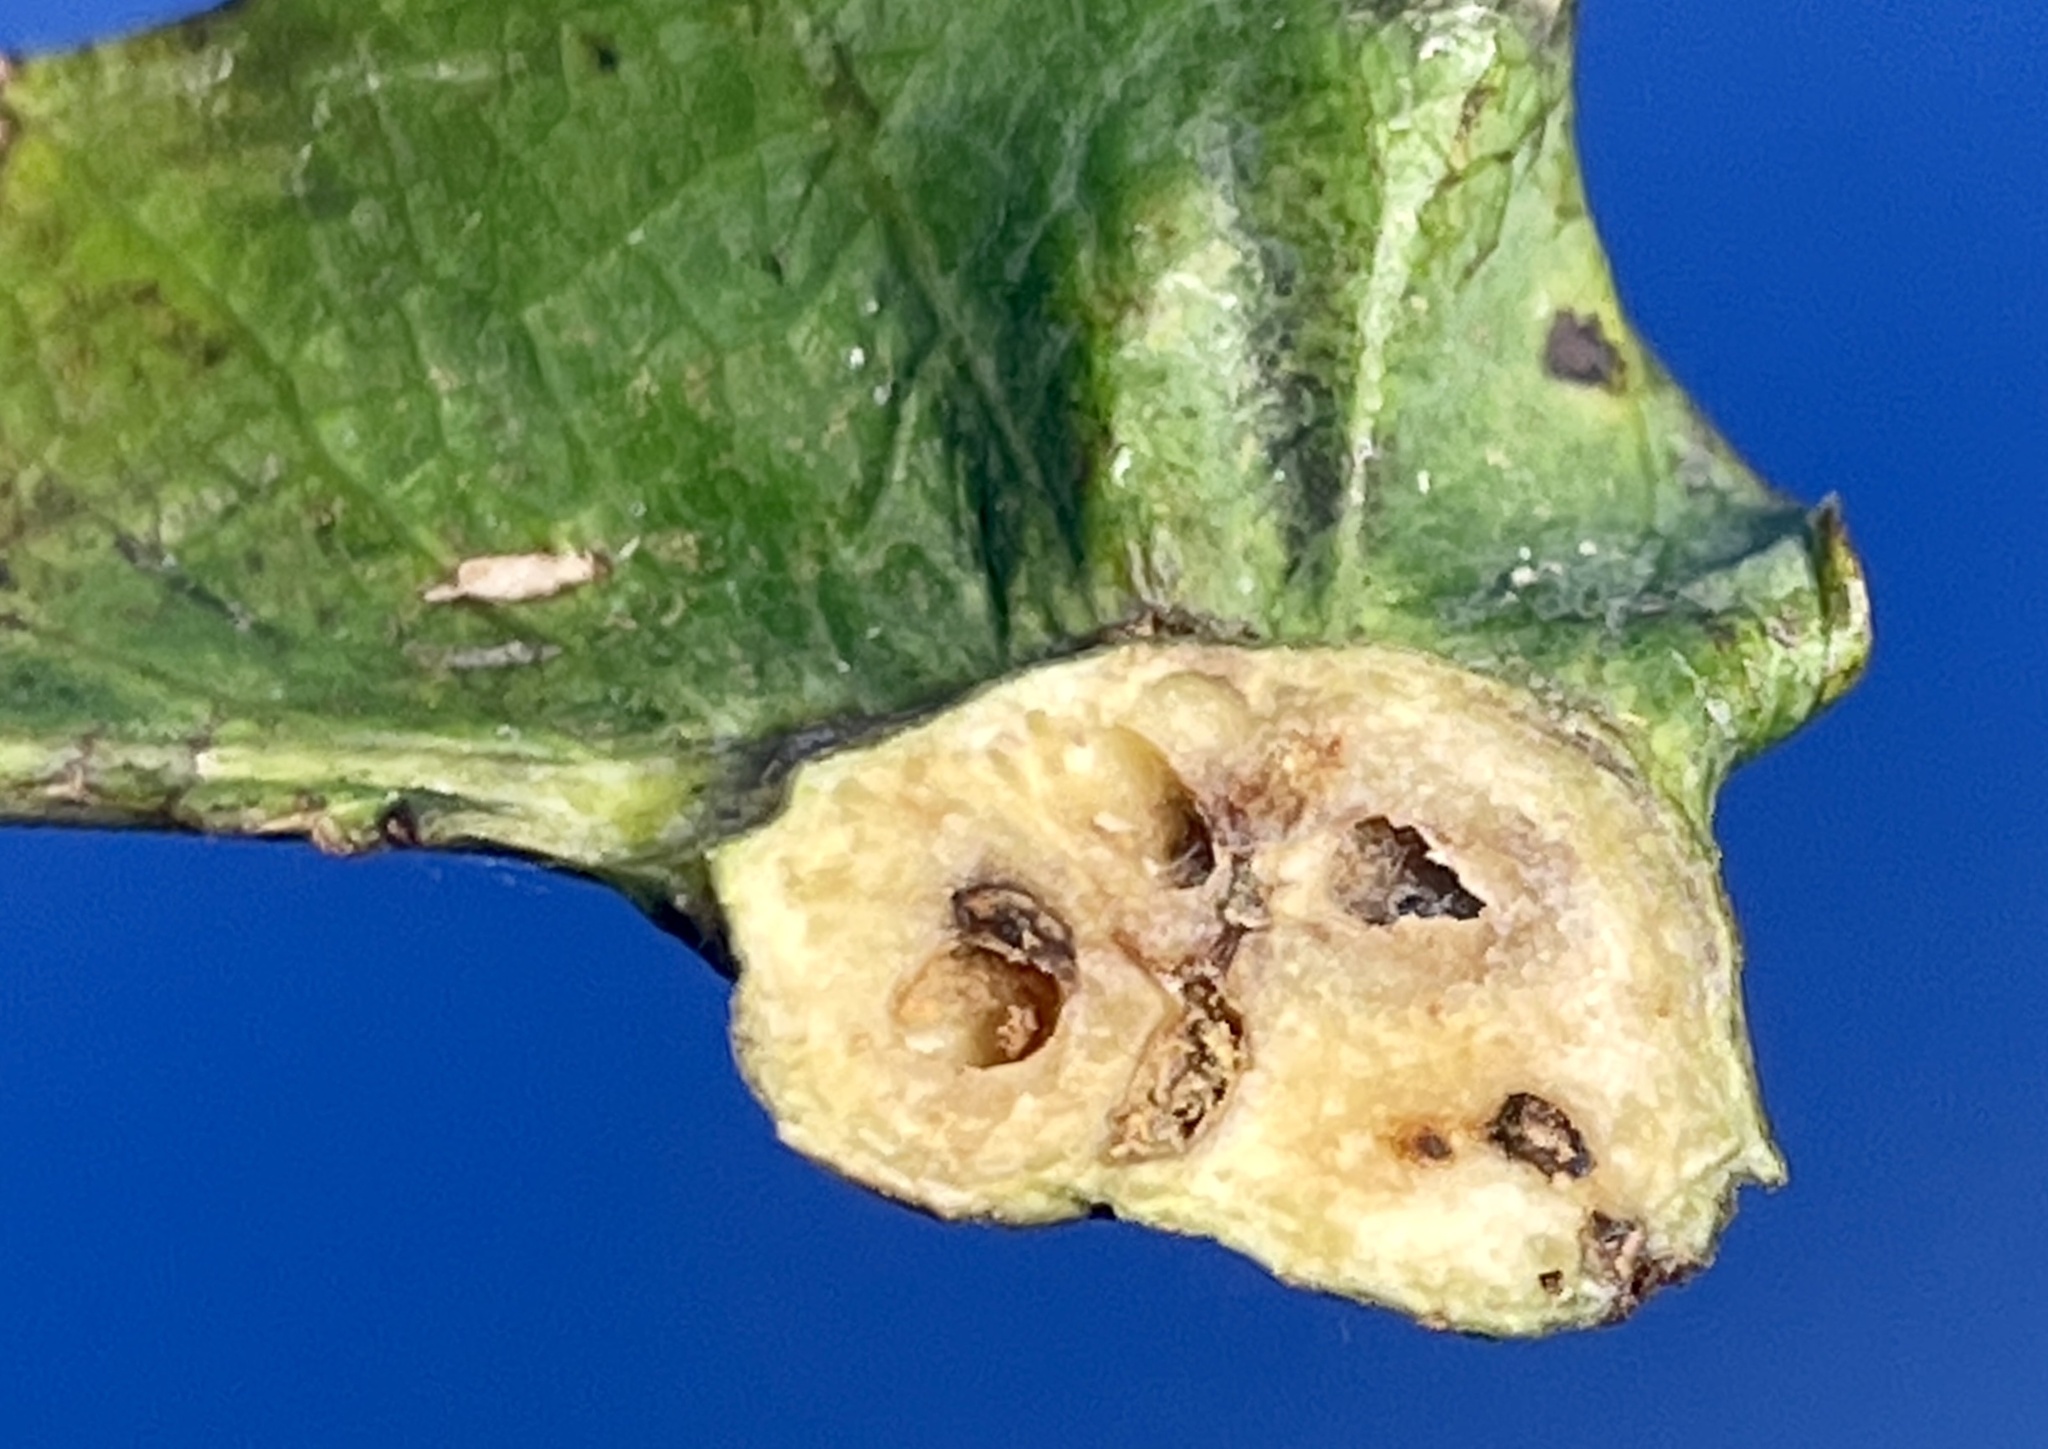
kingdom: Animalia
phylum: Arthropoda
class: Insecta
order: Hymenoptera
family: Cynipidae
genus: Andricus
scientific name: Andricus
